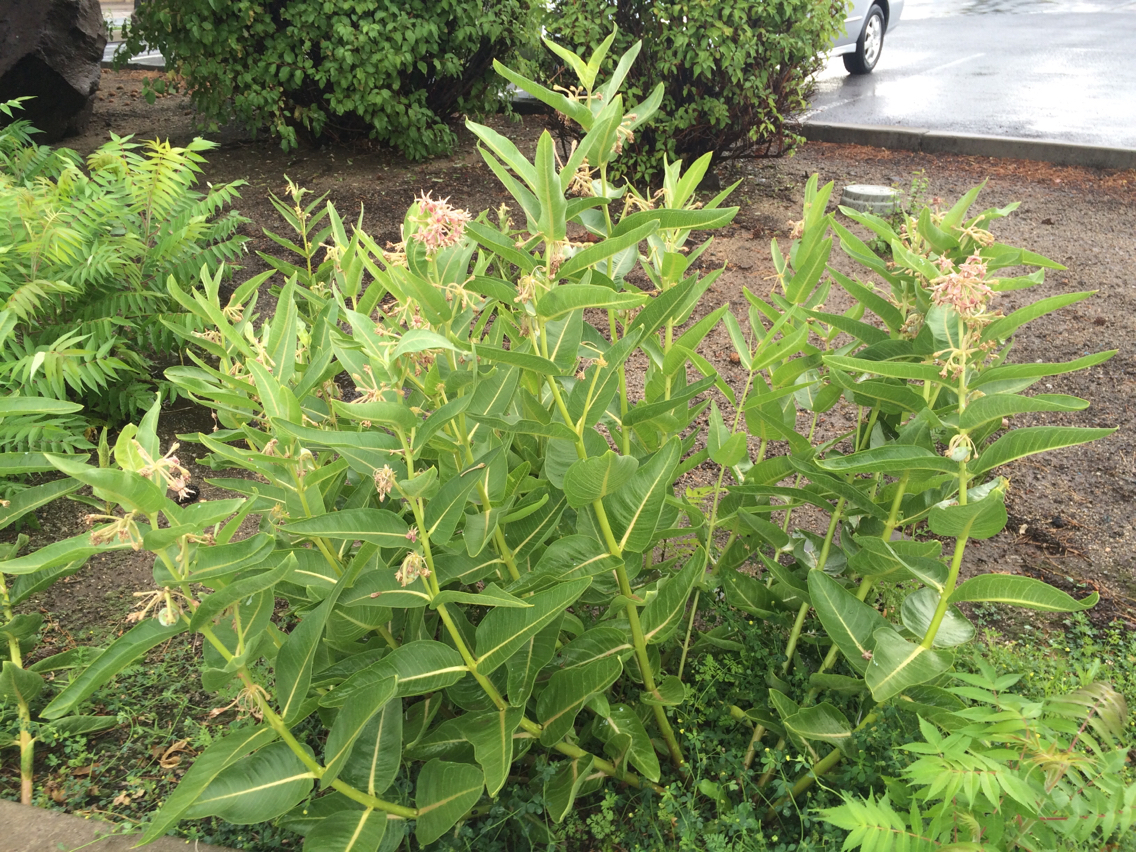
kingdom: Plantae
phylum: Tracheophyta
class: Magnoliopsida
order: Gentianales
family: Apocynaceae
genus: Asclepias
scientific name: Asclepias speciosa
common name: Showy milkweed
